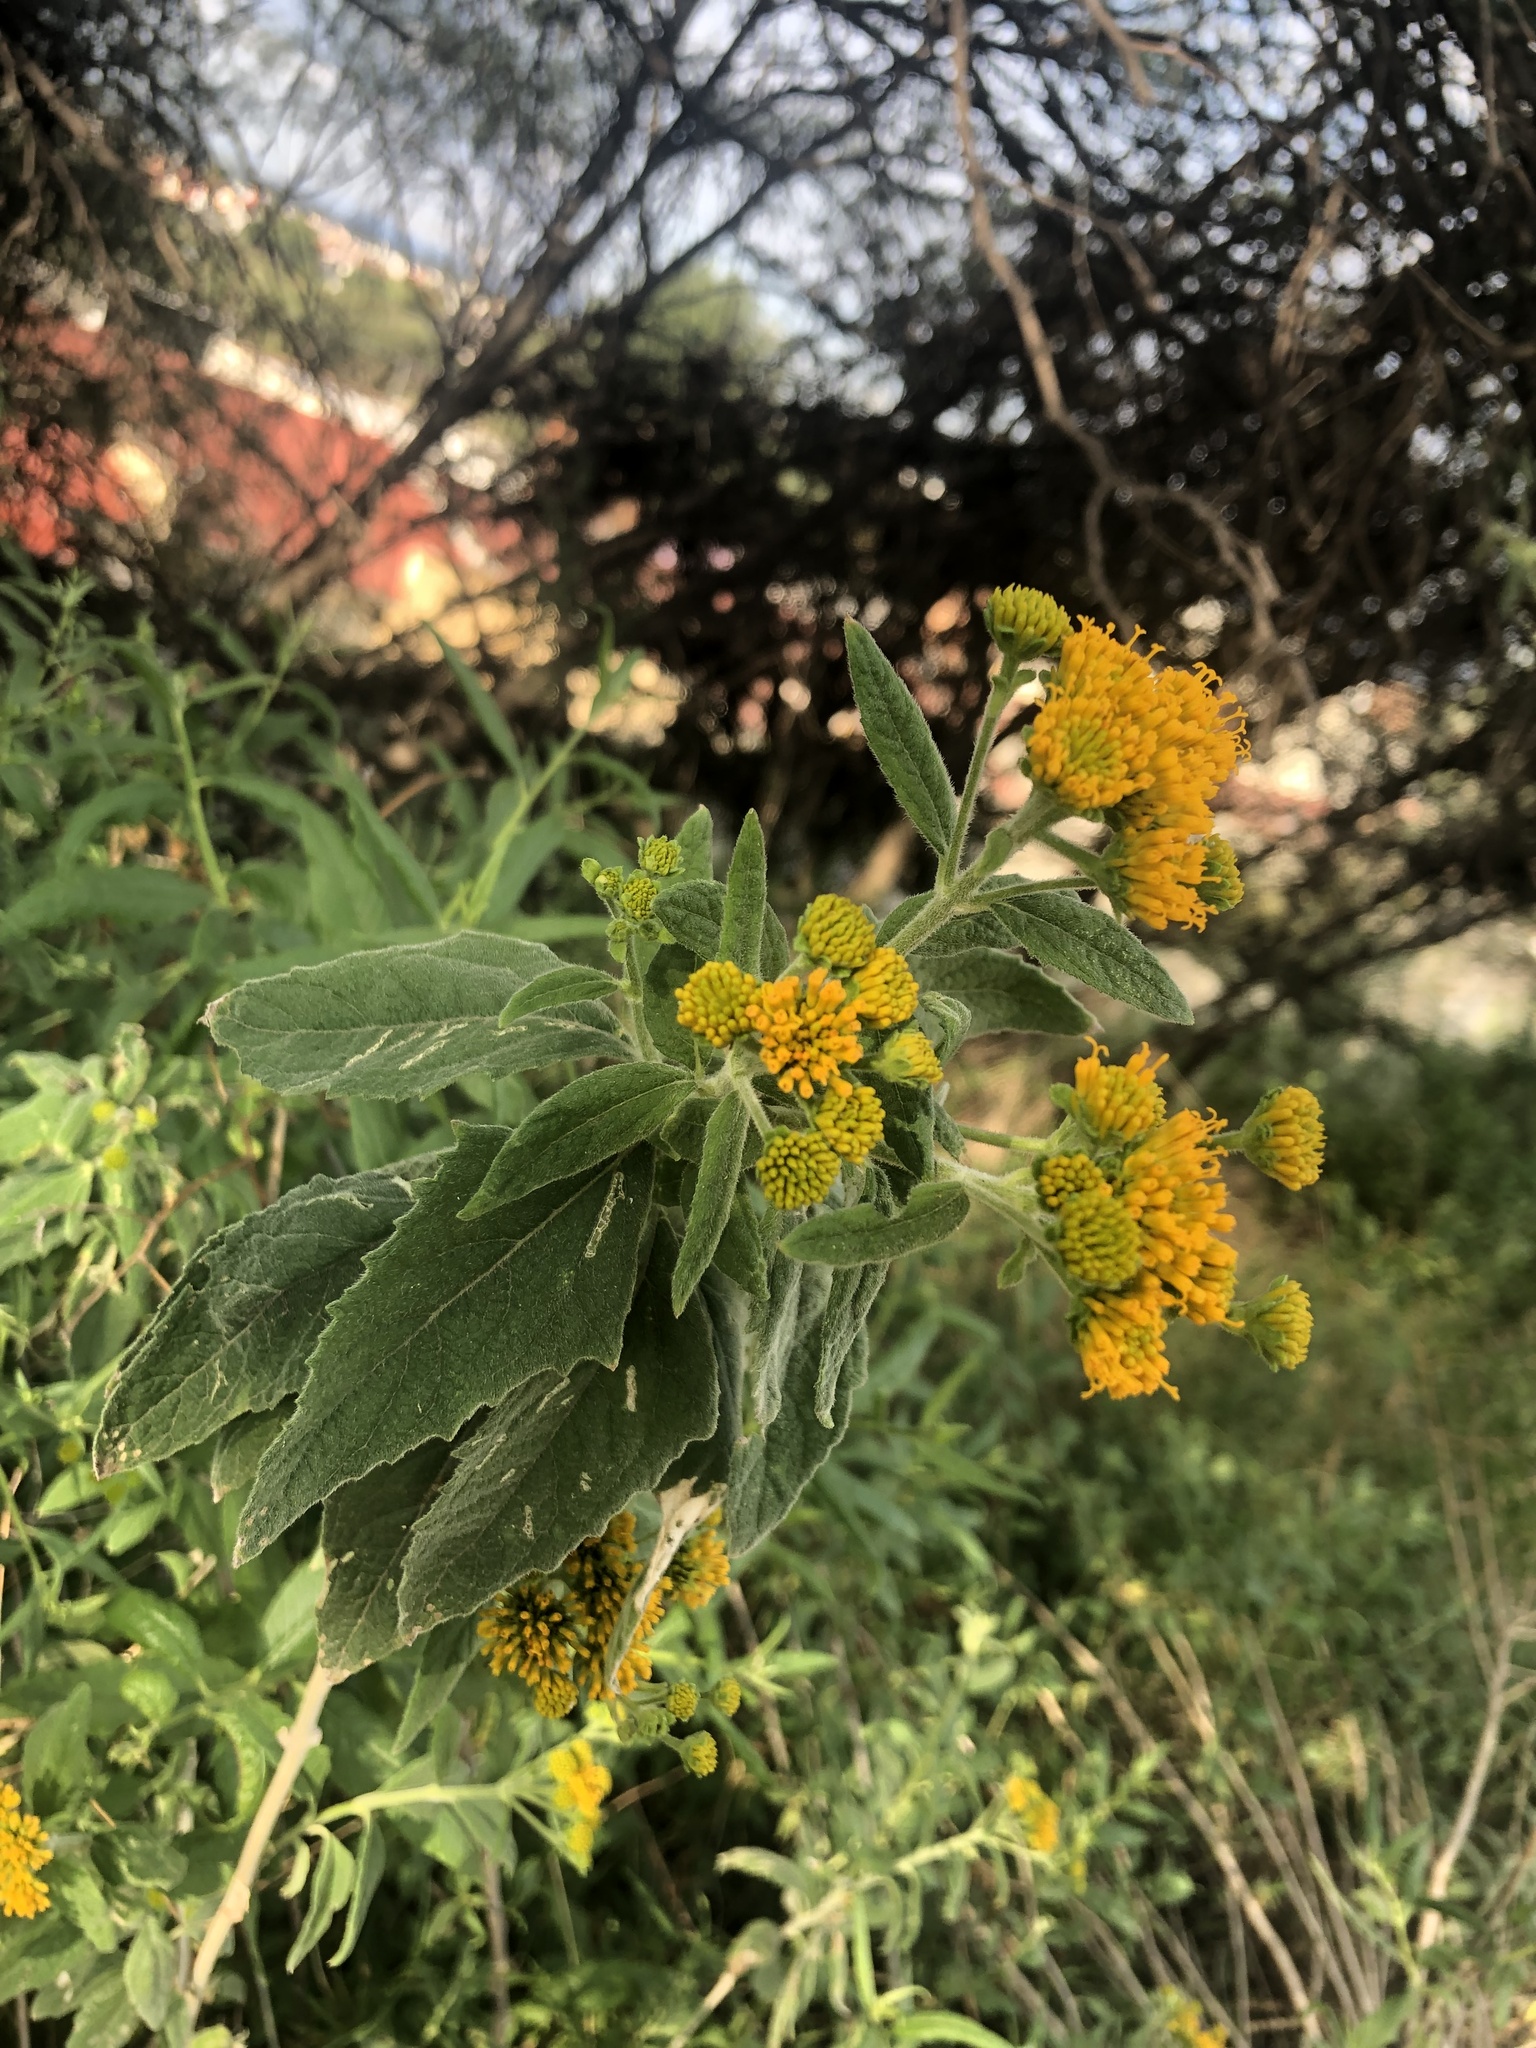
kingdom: Plantae
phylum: Tracheophyta
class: Magnoliopsida
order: Asterales
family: Asteraceae
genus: Verbesina
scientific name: Verbesina serrata
